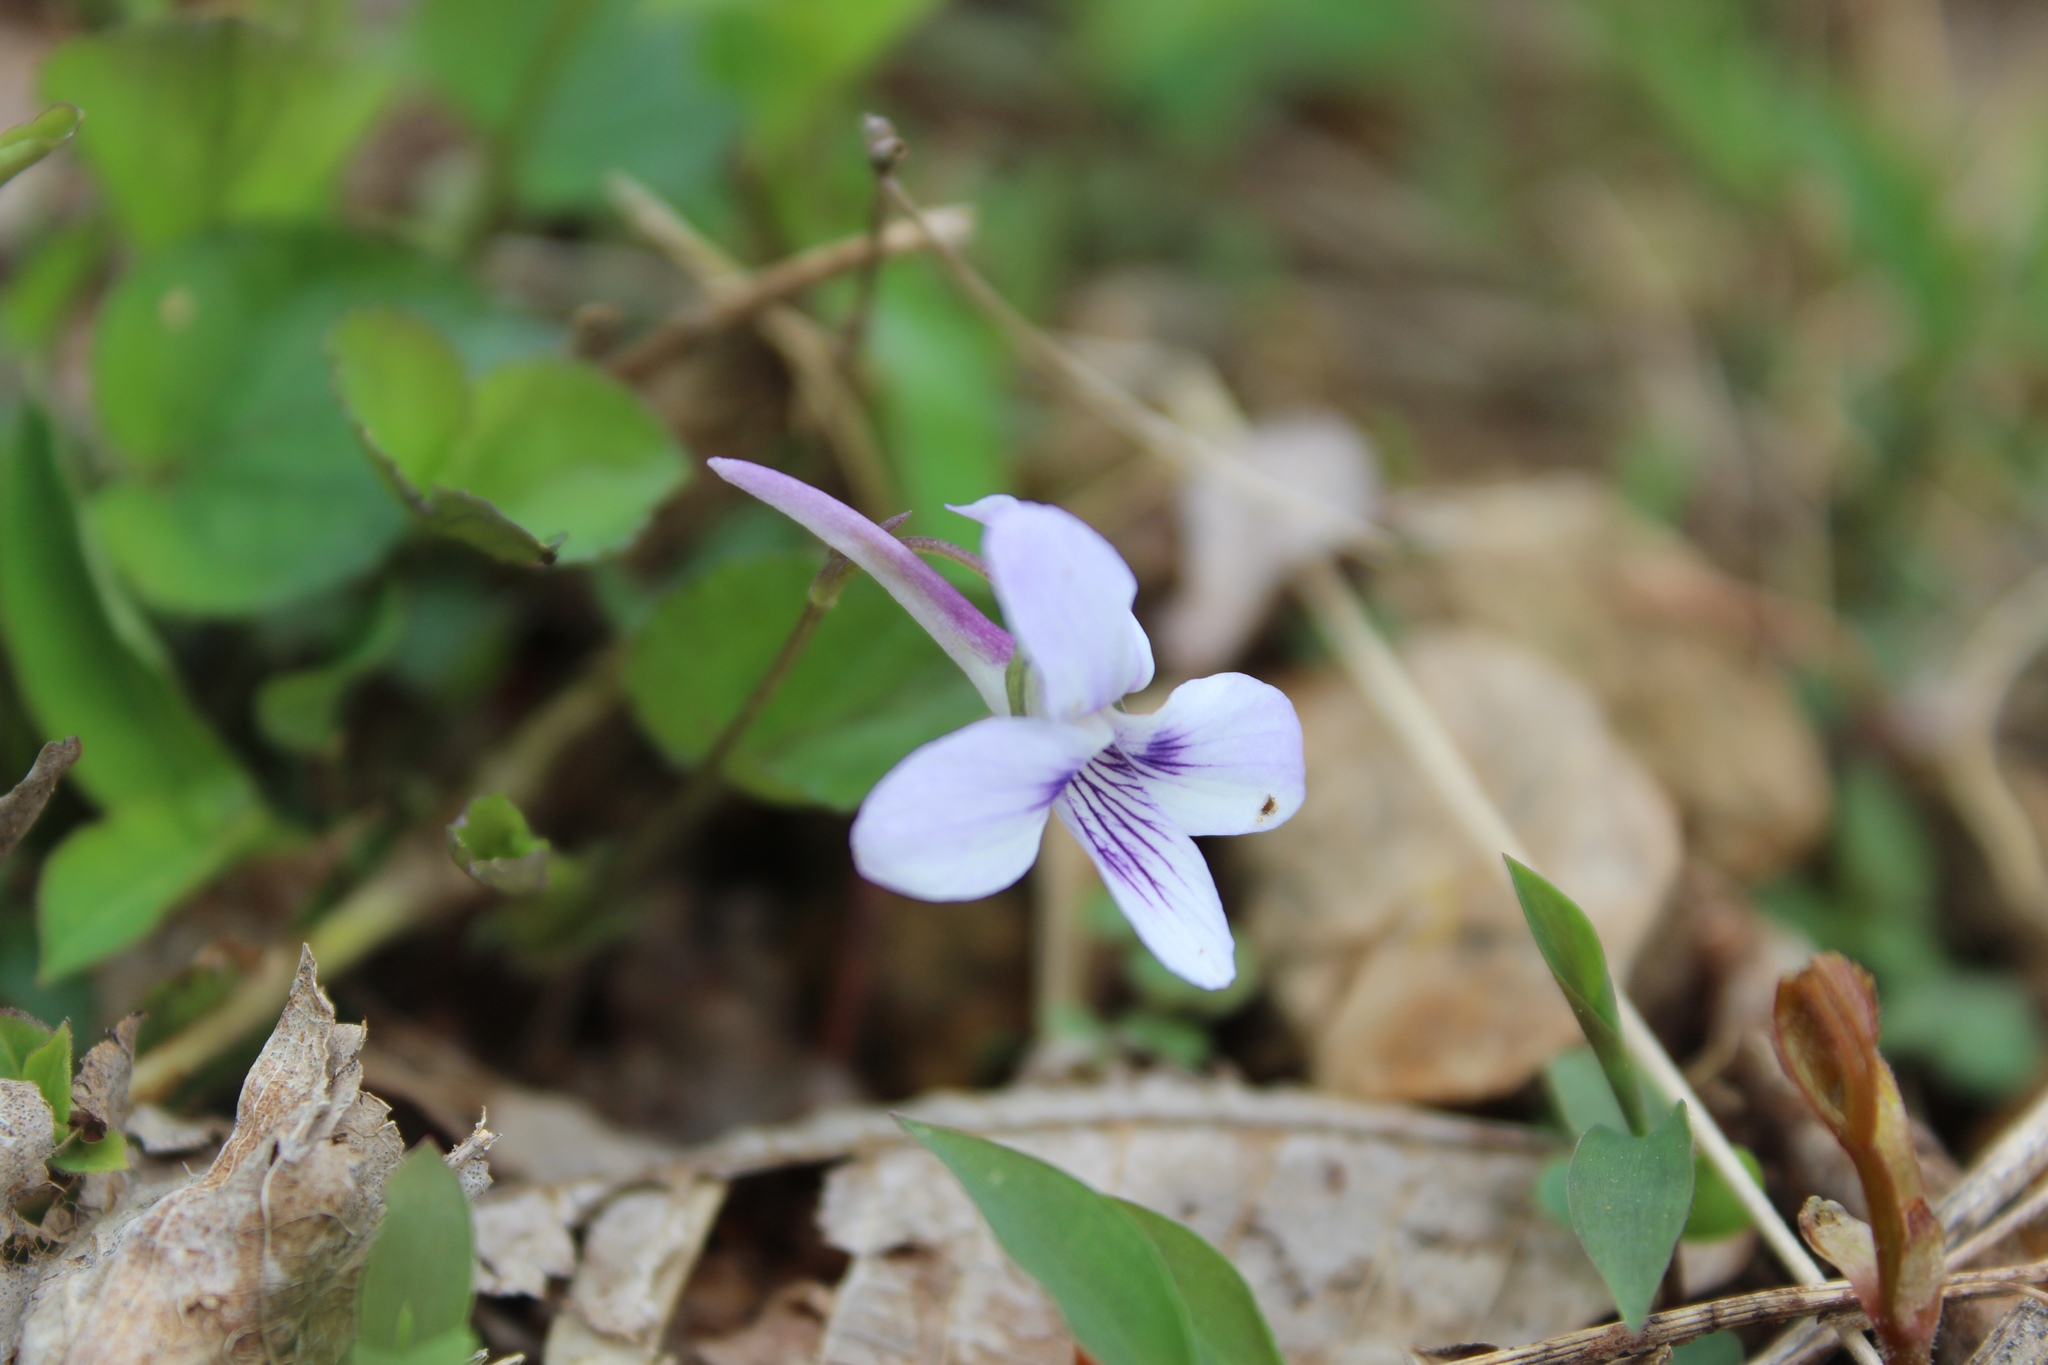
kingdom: Plantae
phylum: Tracheophyta
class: Magnoliopsida
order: Malpighiales
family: Violaceae
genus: Viola
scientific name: Viola rostrata
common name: Long-spur violet
